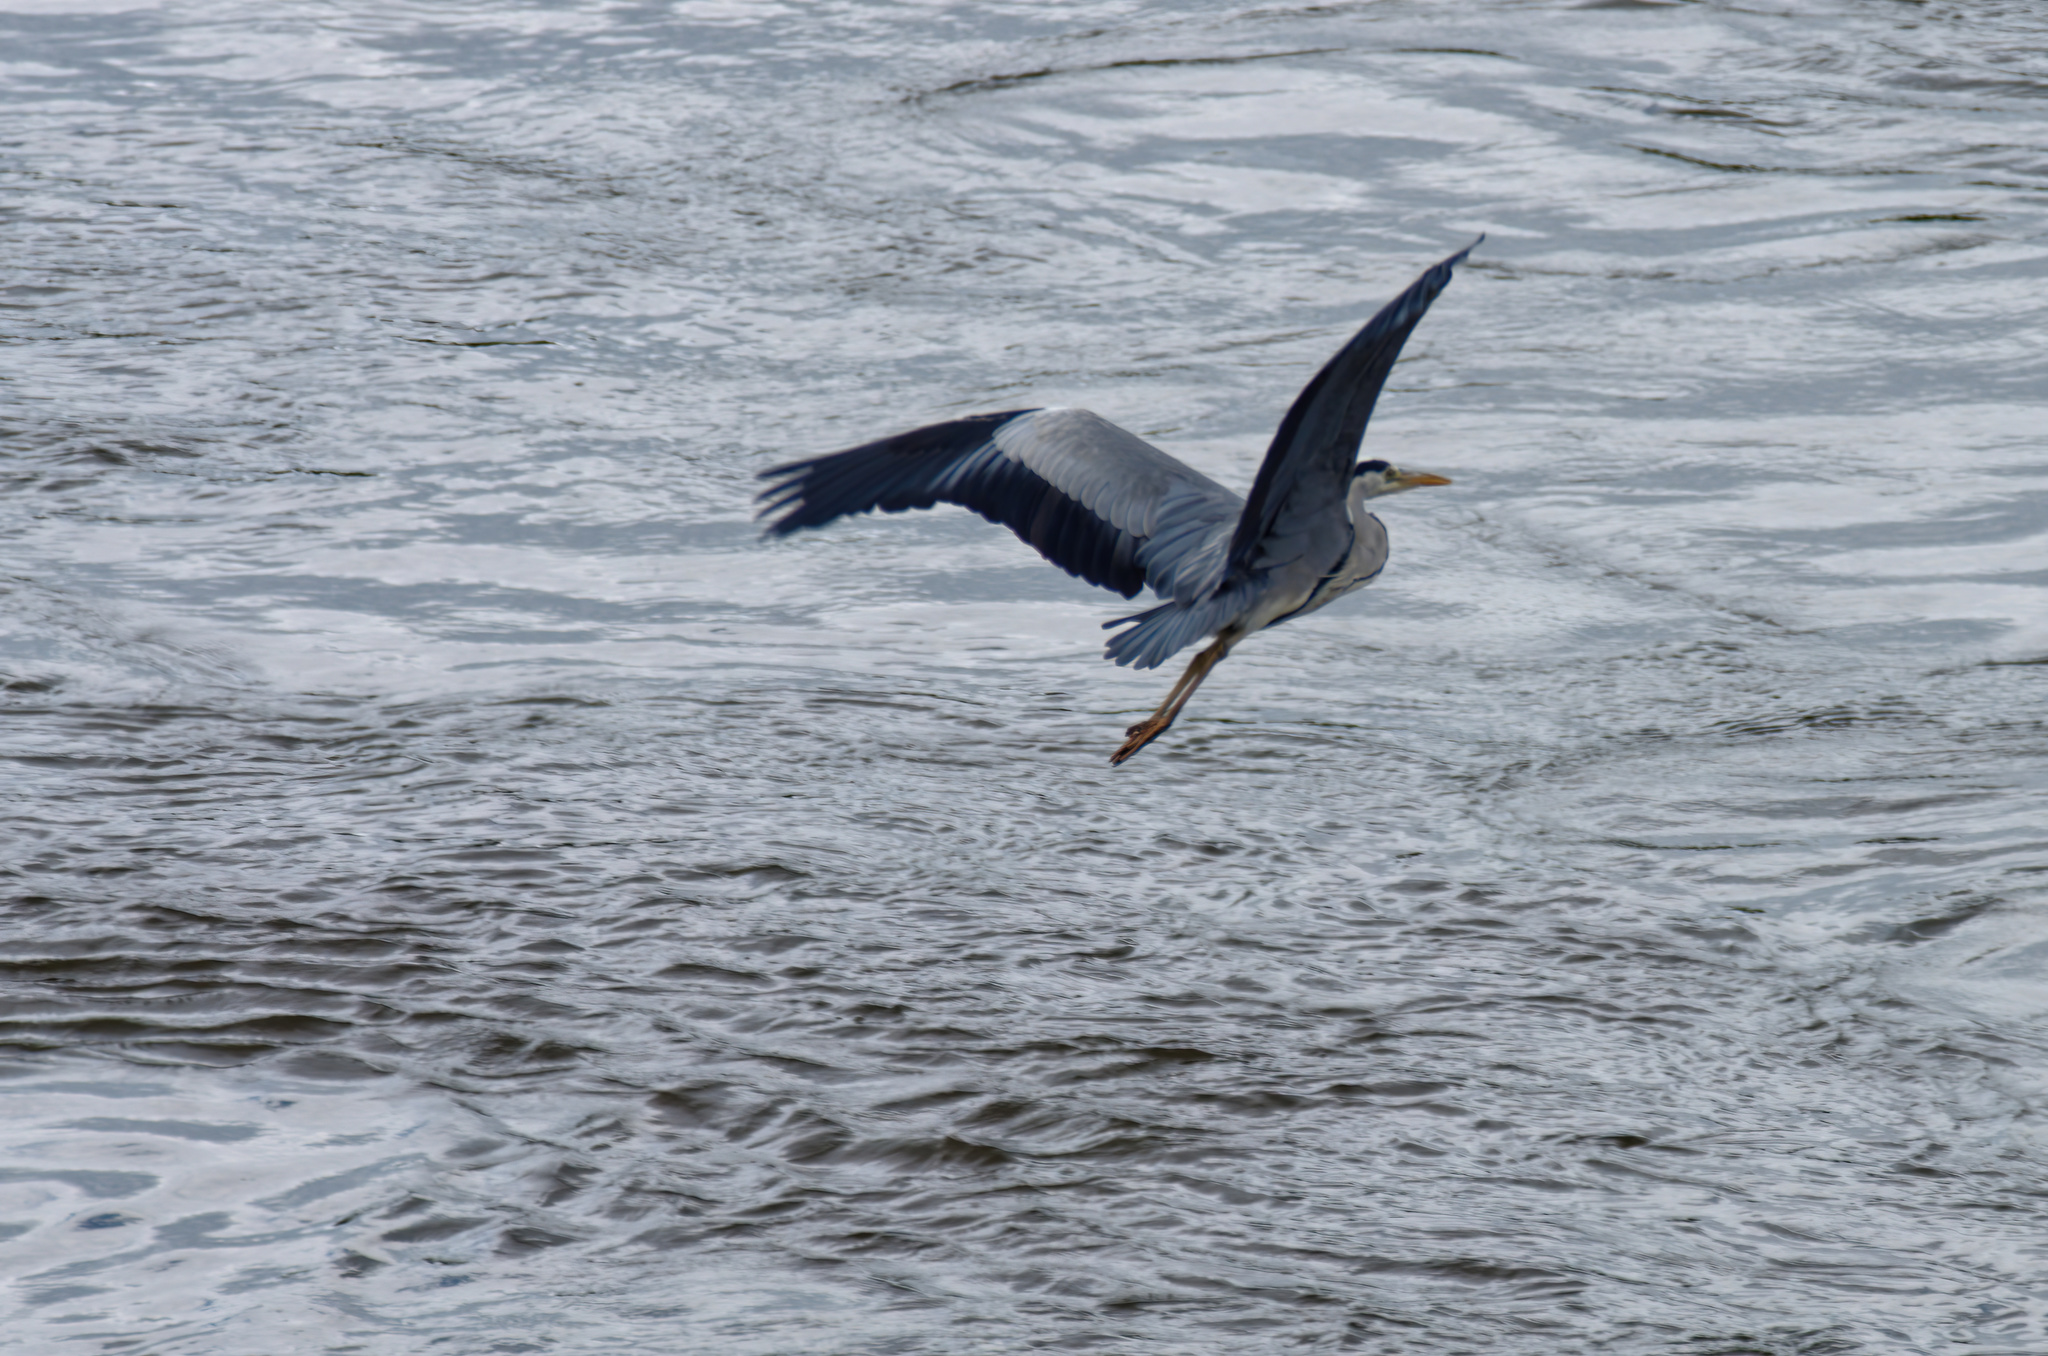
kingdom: Animalia
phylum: Chordata
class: Aves
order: Pelecaniformes
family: Ardeidae
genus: Ardea
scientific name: Ardea cinerea
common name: Grey heron
